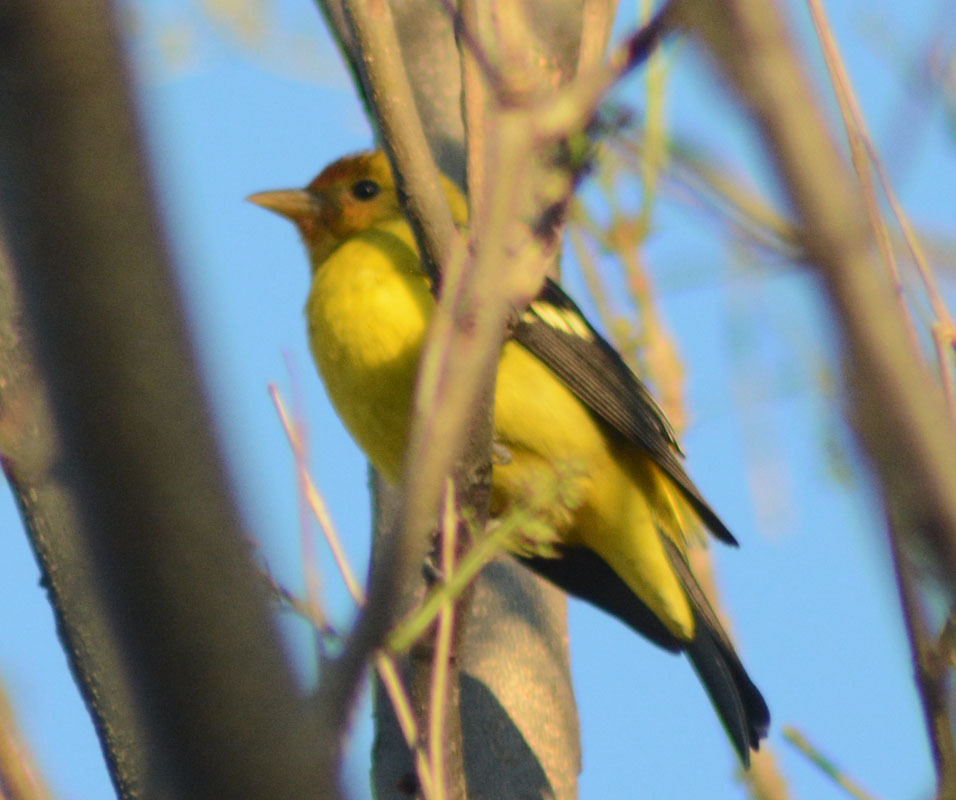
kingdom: Animalia
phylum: Chordata
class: Aves
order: Passeriformes
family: Cardinalidae
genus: Piranga
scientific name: Piranga ludoviciana
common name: Western tanager
